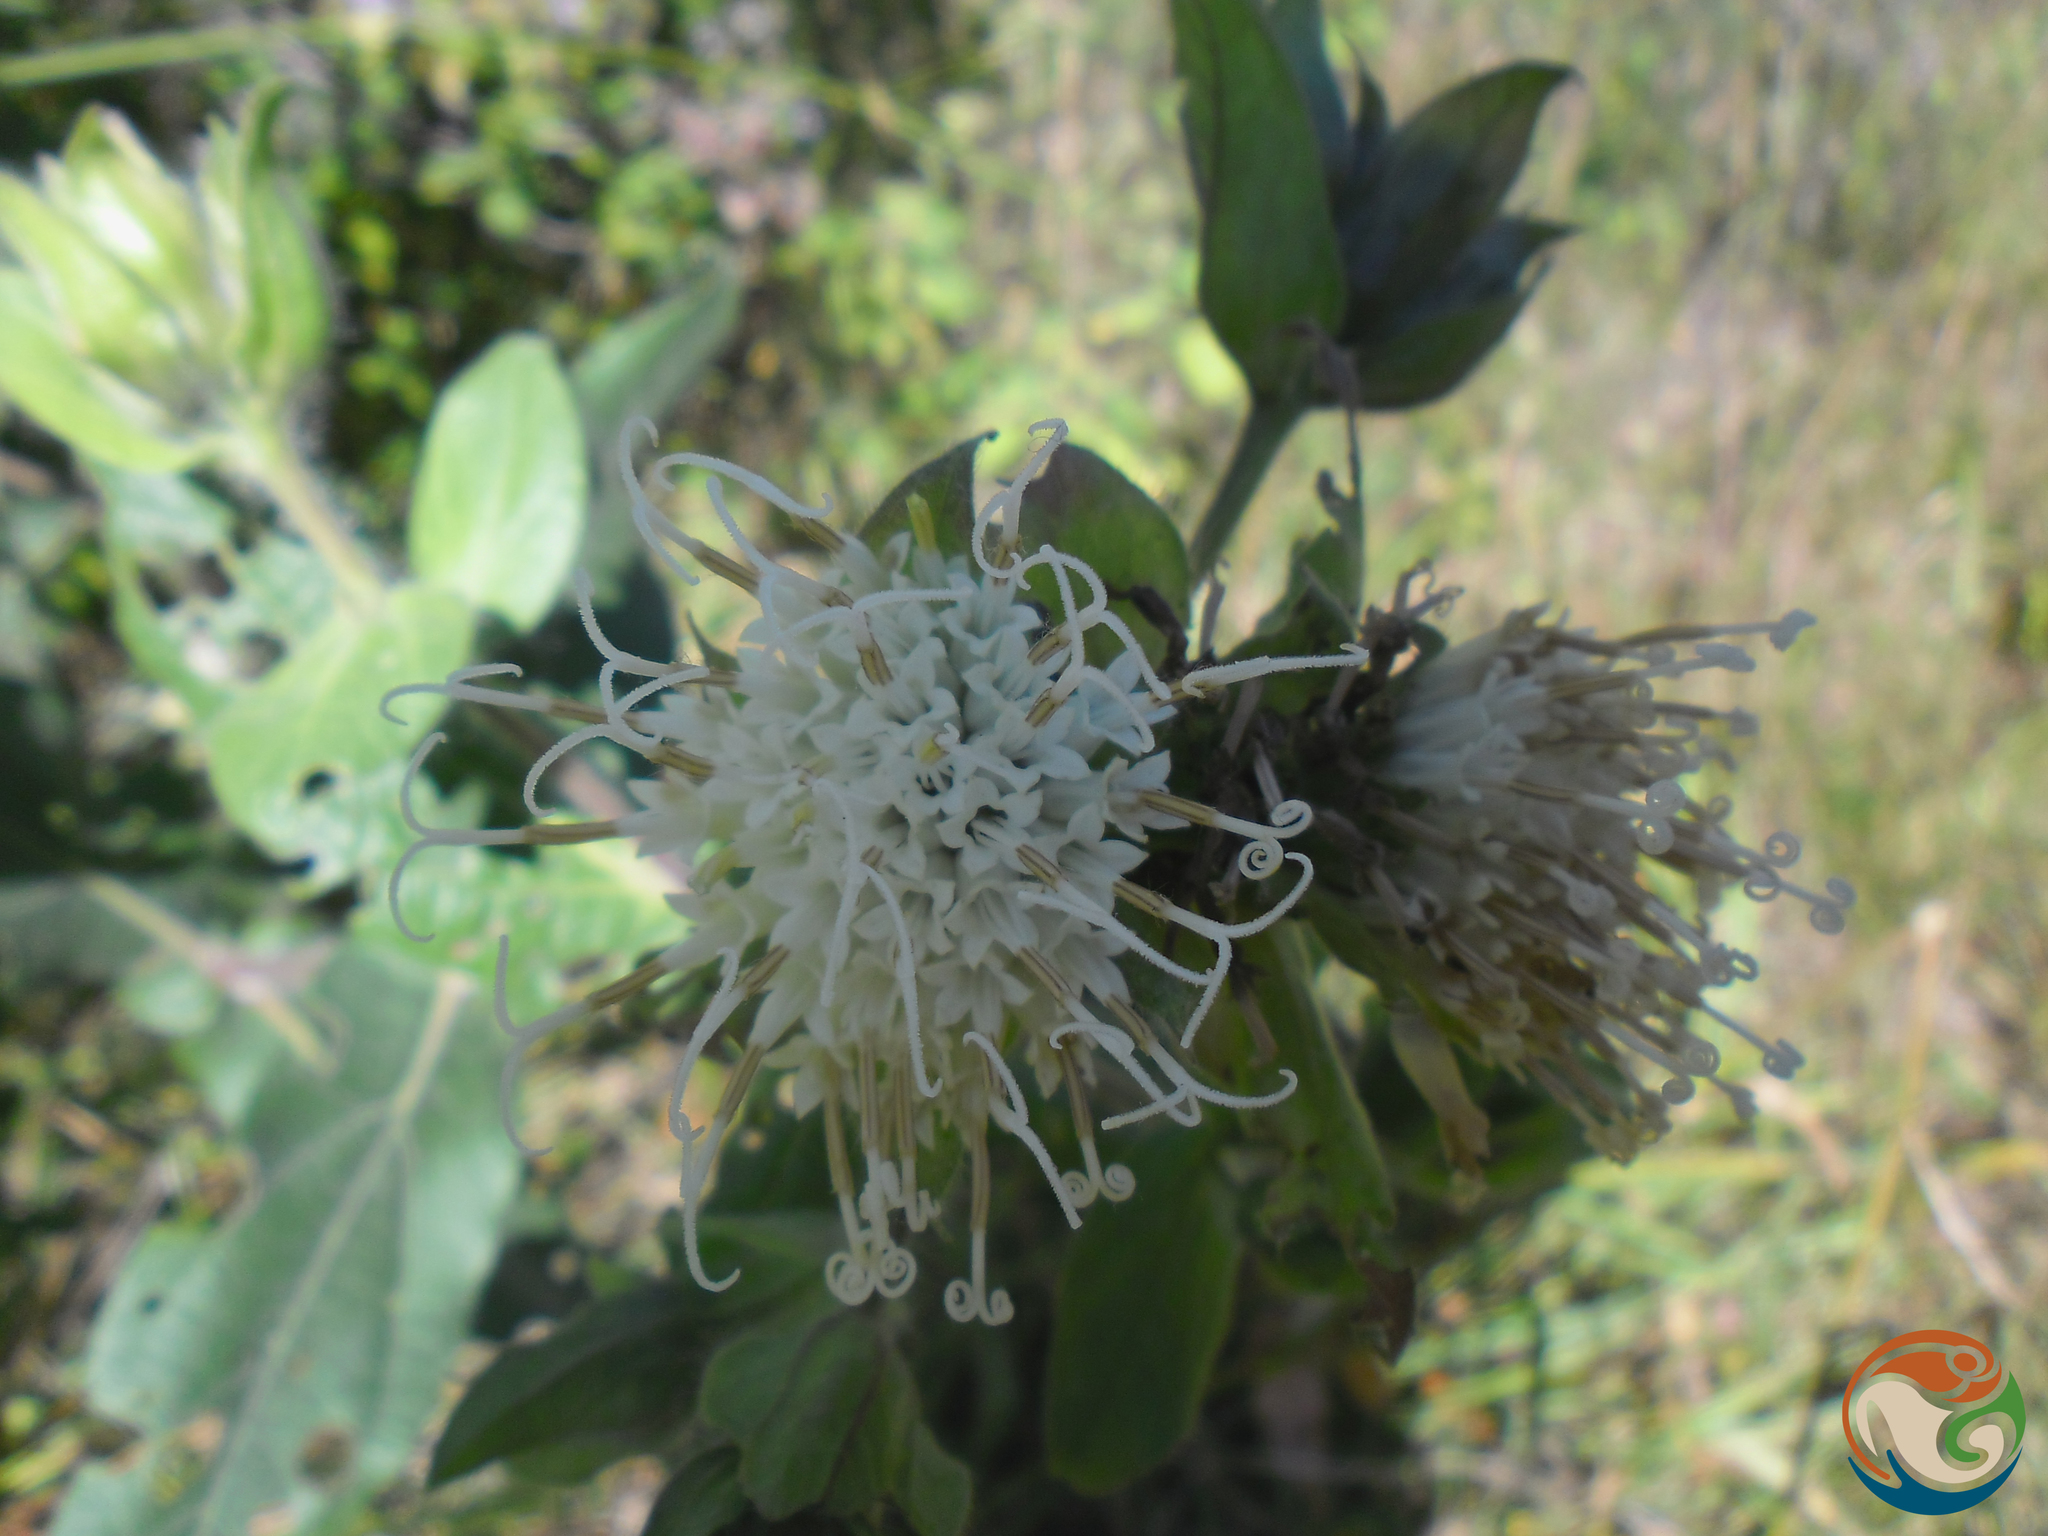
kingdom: Plantae
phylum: Tracheophyta
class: Magnoliopsida
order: Asterales
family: Asteraceae
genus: Lagascea
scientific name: Lagascea helianthifolia
